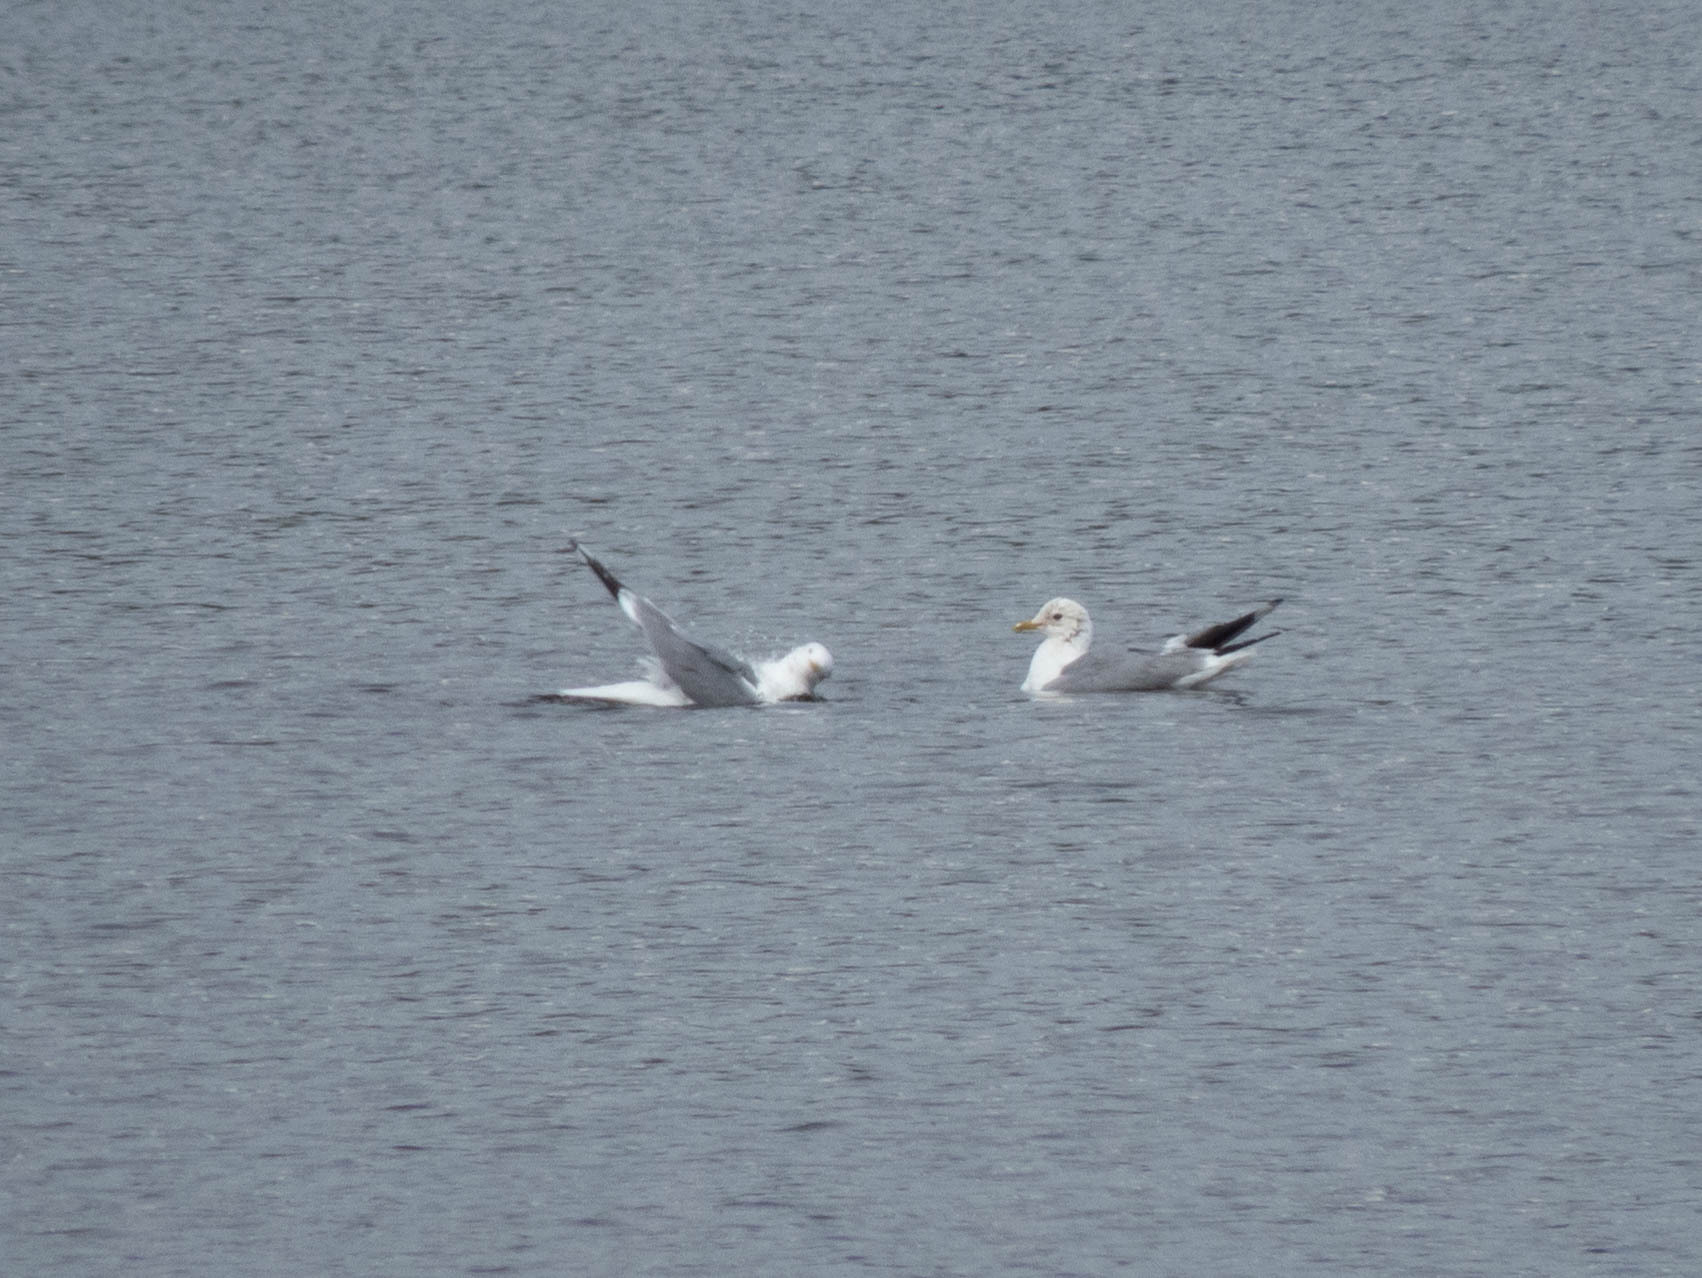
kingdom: Animalia
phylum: Chordata
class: Aves
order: Charadriiformes
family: Laridae
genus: Larus
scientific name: Larus canus
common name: Mew gull
